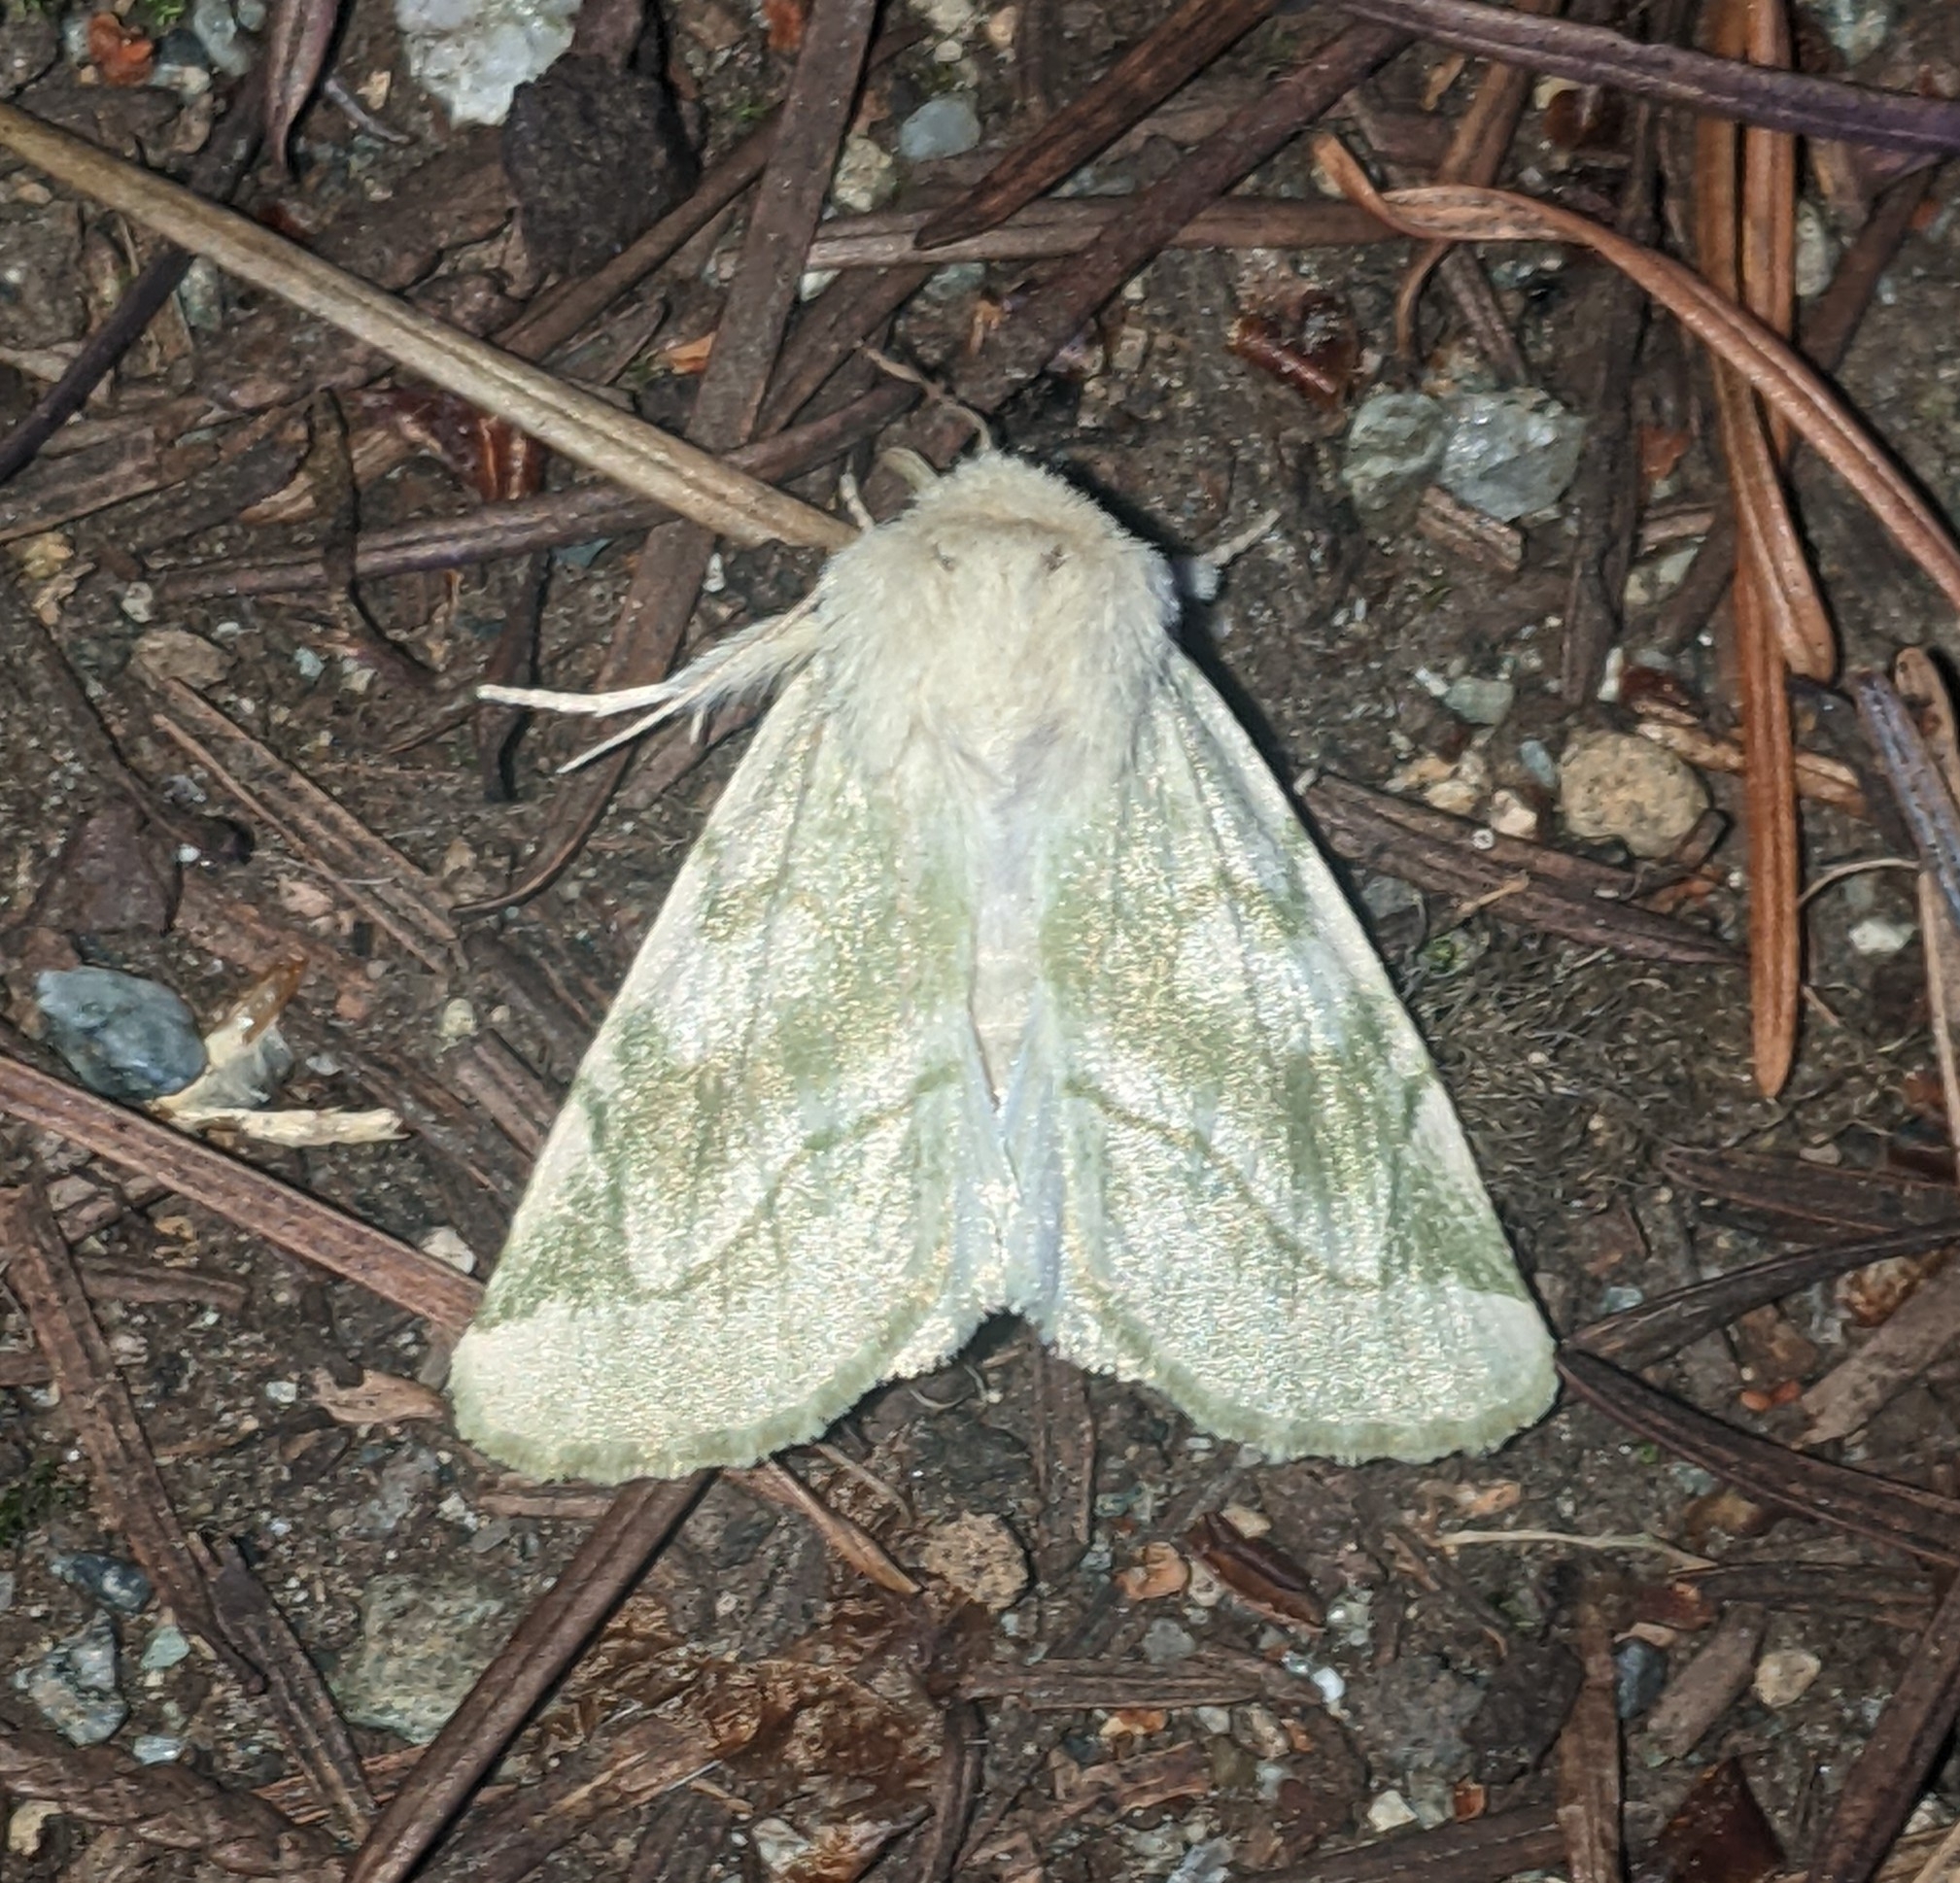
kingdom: Animalia
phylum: Arthropoda
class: Insecta
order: Lepidoptera
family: Noctuidae
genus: Zotheca
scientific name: Zotheca tranquilla
